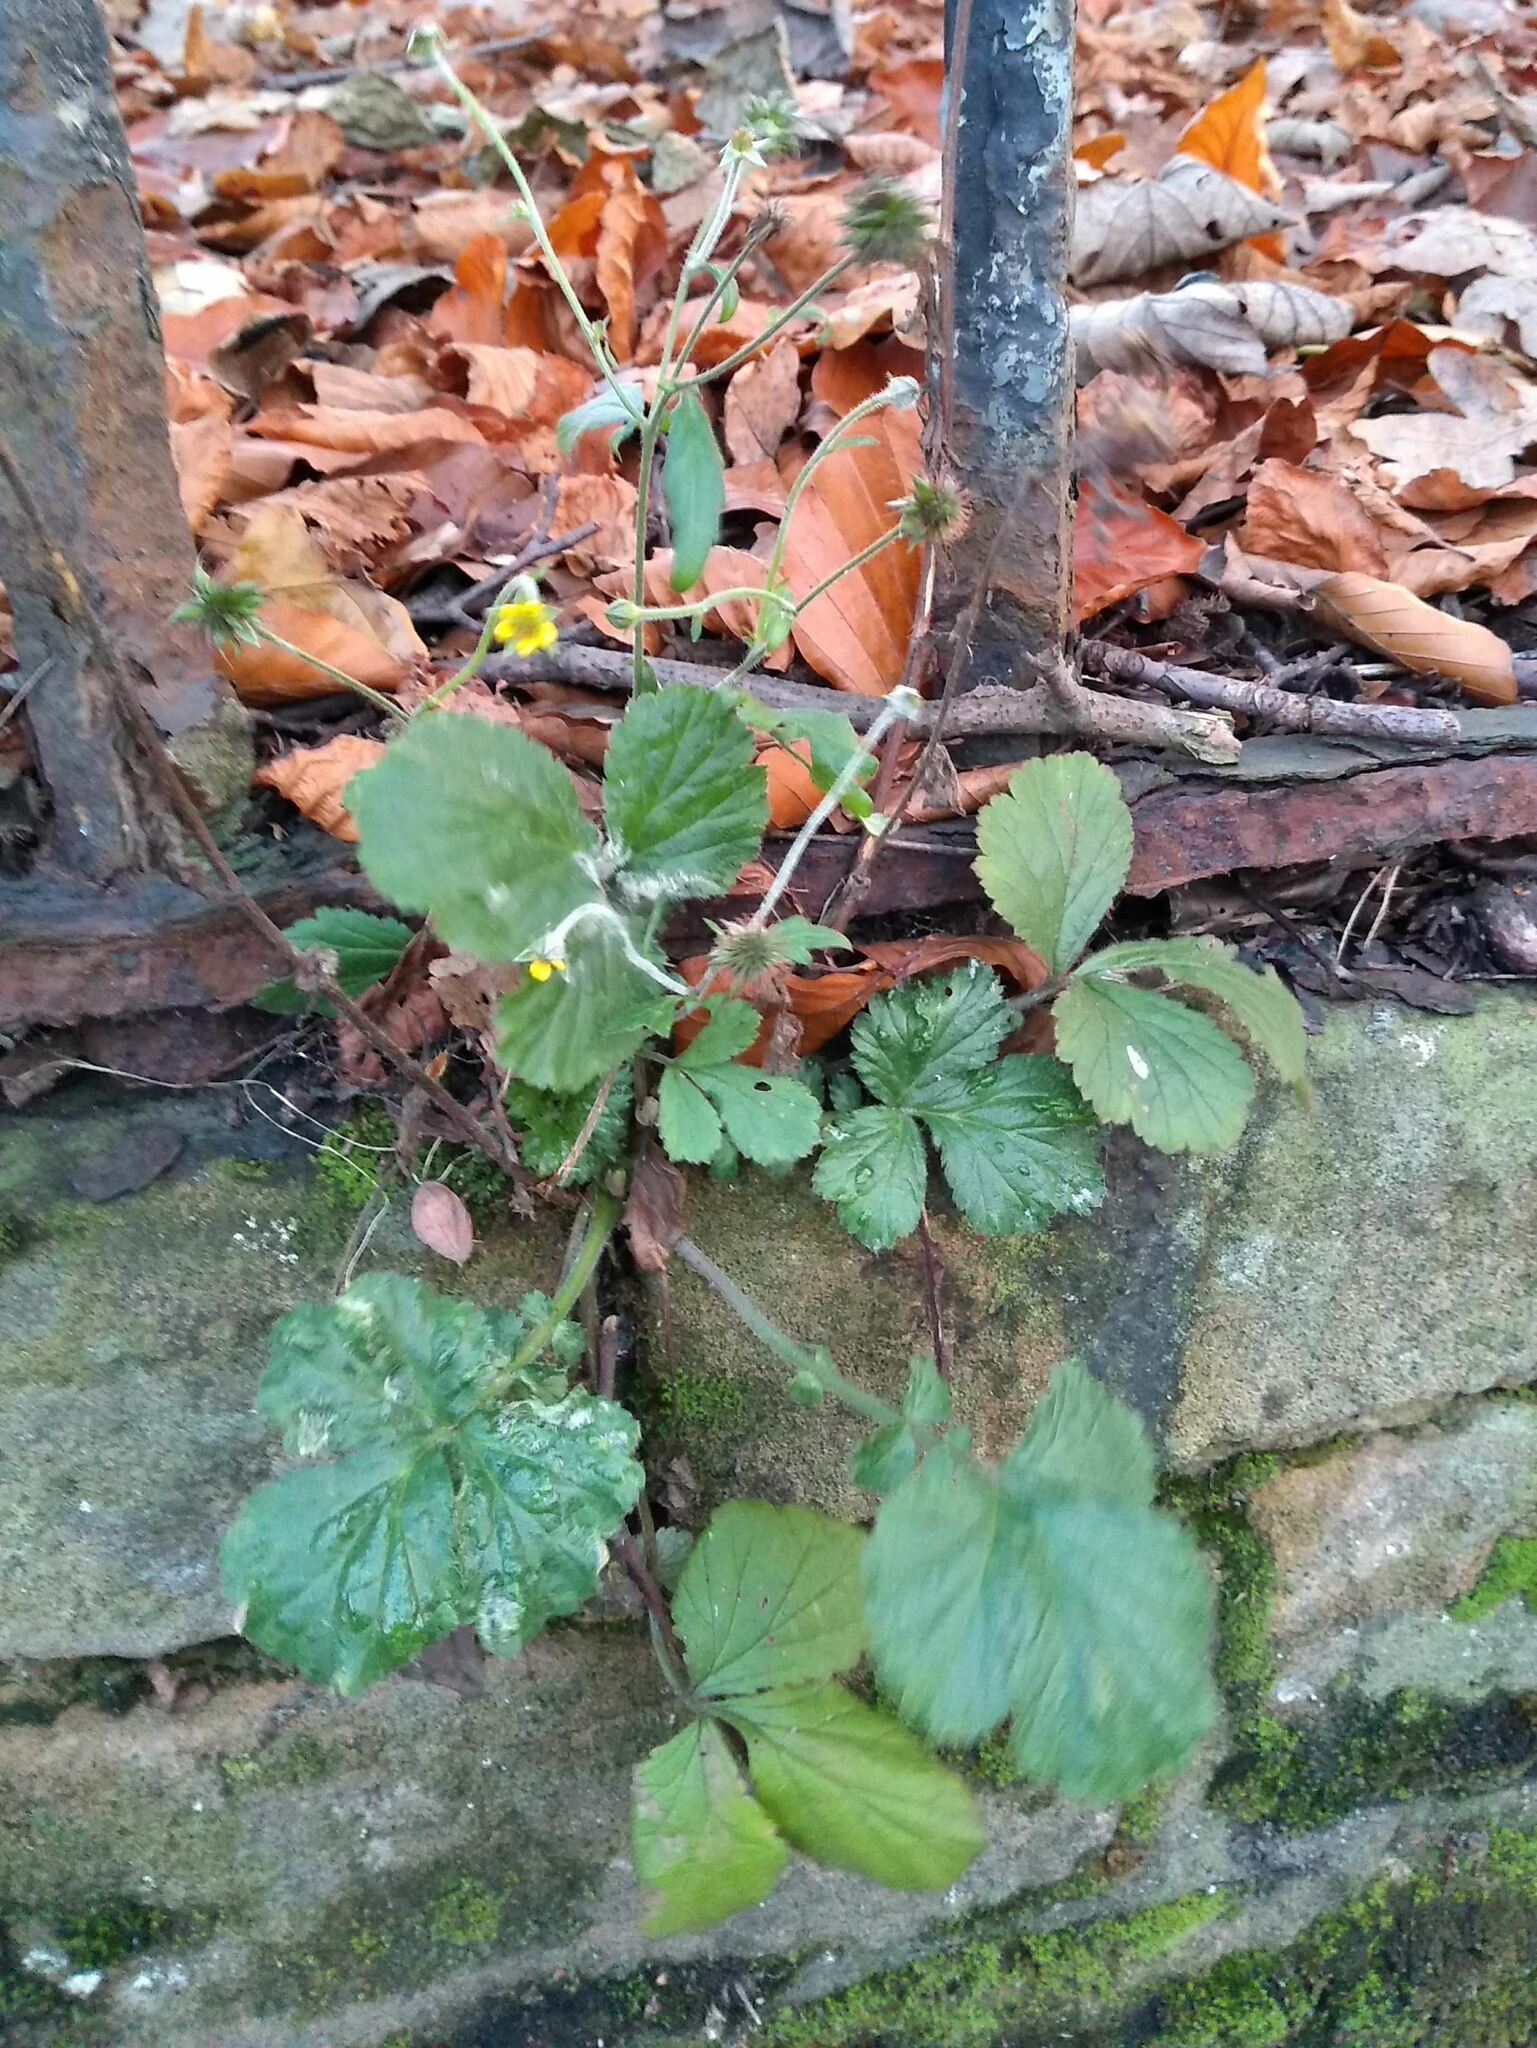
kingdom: Plantae
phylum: Tracheophyta
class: Magnoliopsida
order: Rosales
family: Rosaceae
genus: Geum
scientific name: Geum urbanum
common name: Wood avens
